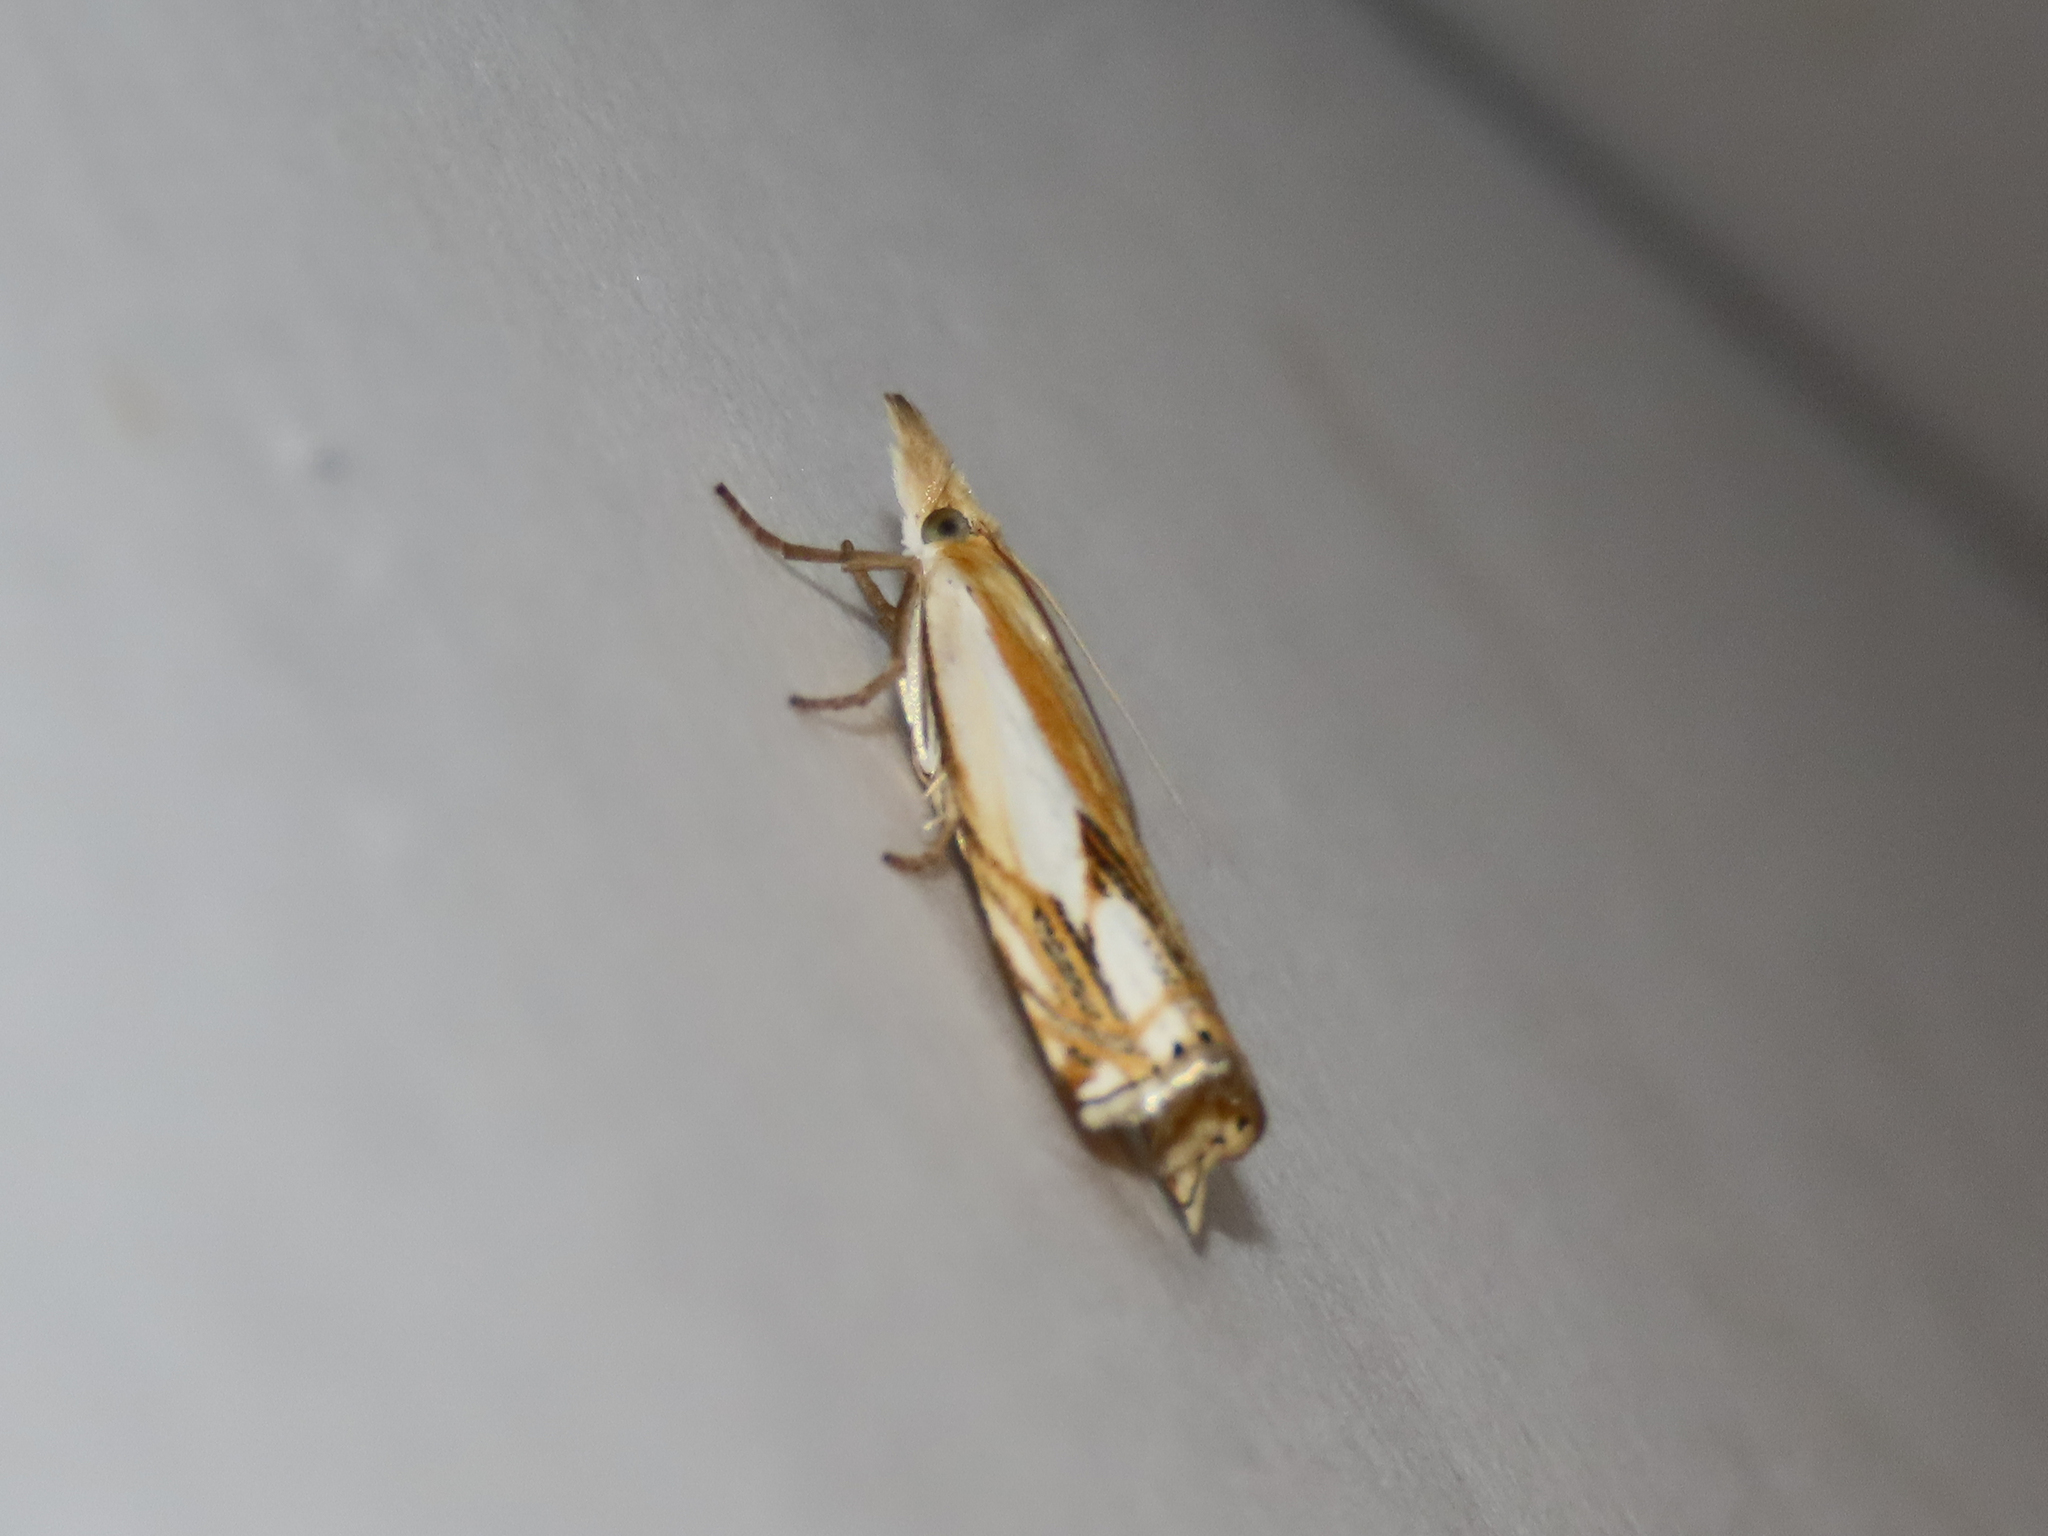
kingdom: Animalia
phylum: Arthropoda
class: Insecta
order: Lepidoptera
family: Crambidae
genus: Crambus
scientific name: Crambus agitatellus
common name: Double-banded grass-veneer
